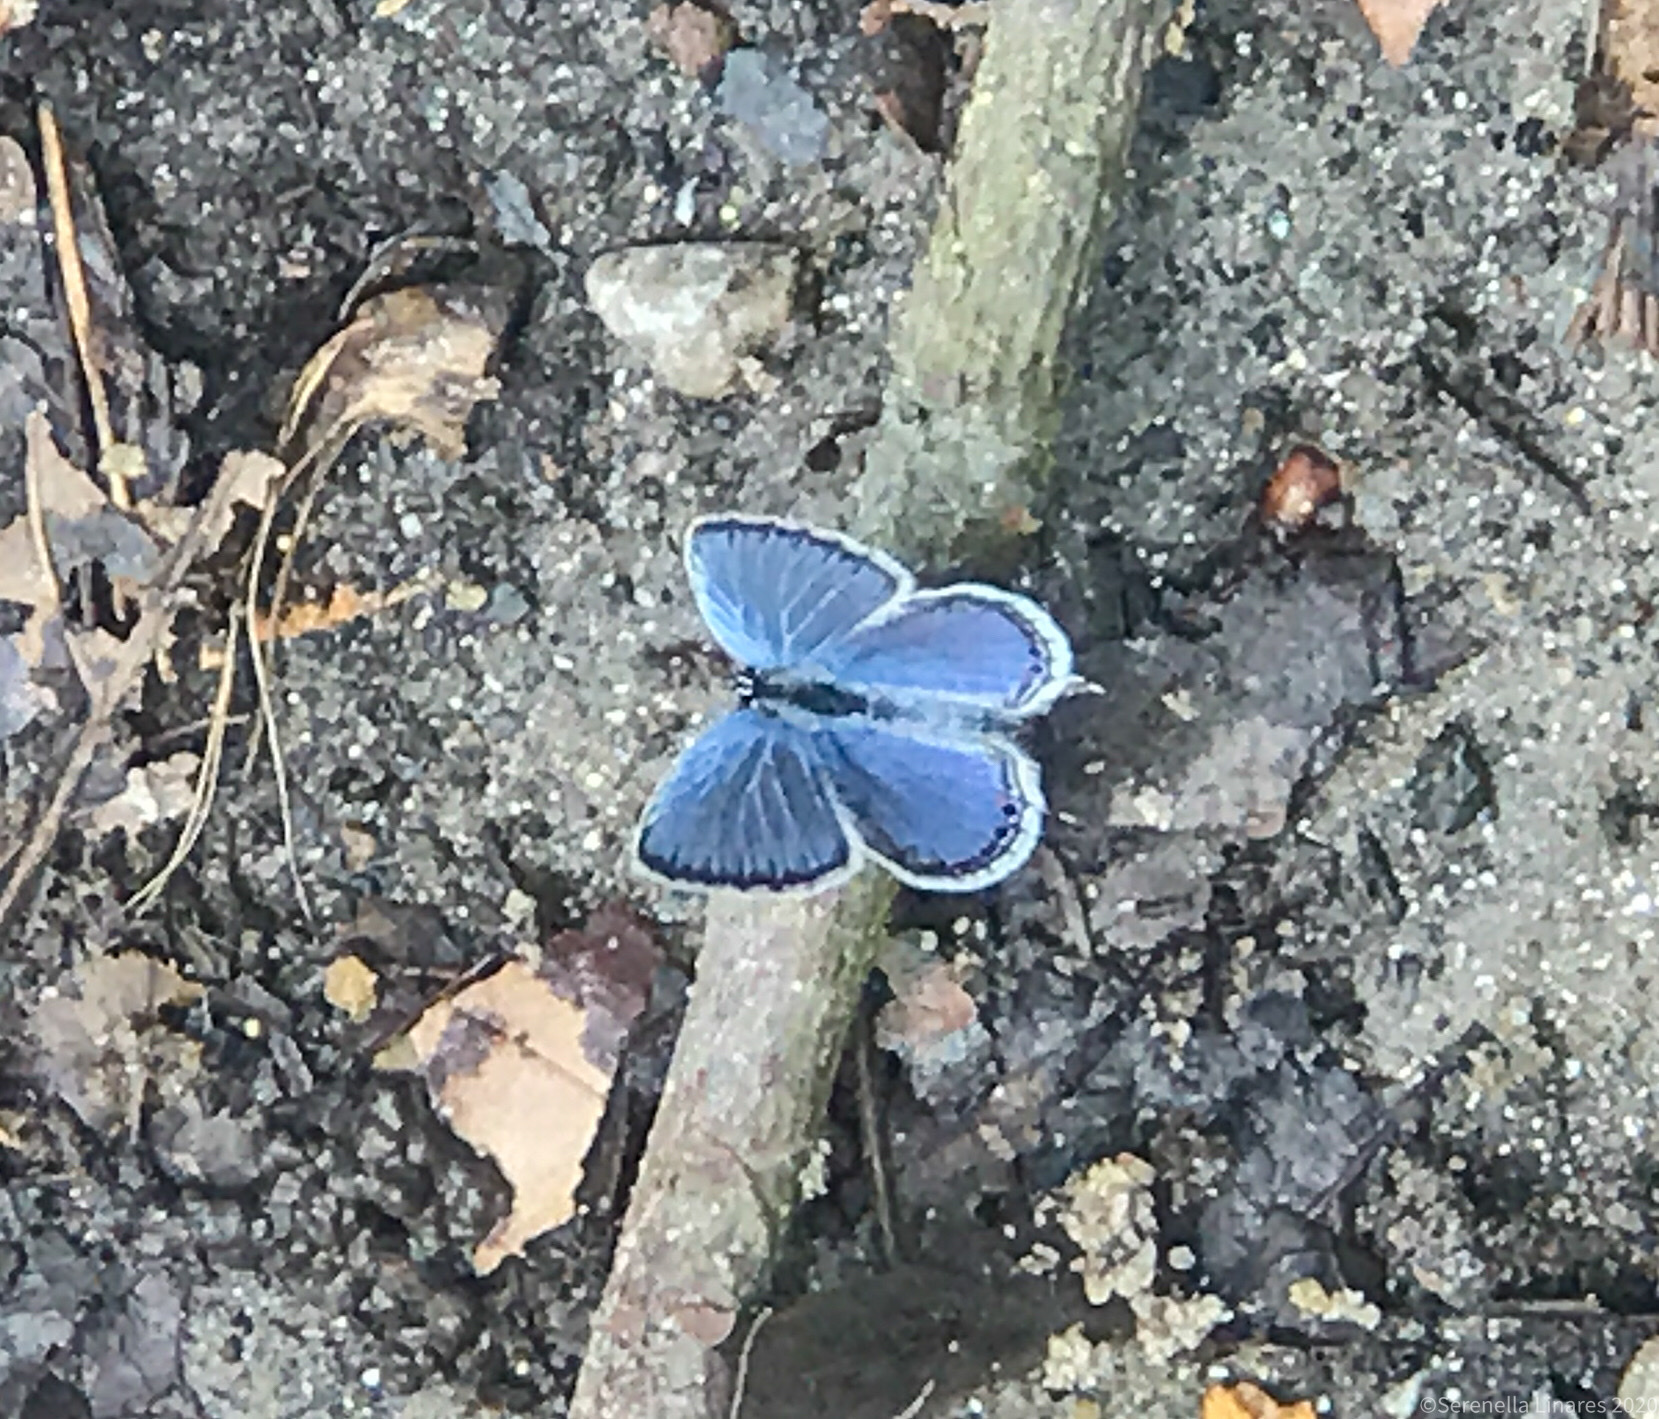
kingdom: Animalia
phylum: Arthropoda
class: Insecta
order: Lepidoptera
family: Lycaenidae
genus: Elkalyce
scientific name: Elkalyce comyntas
